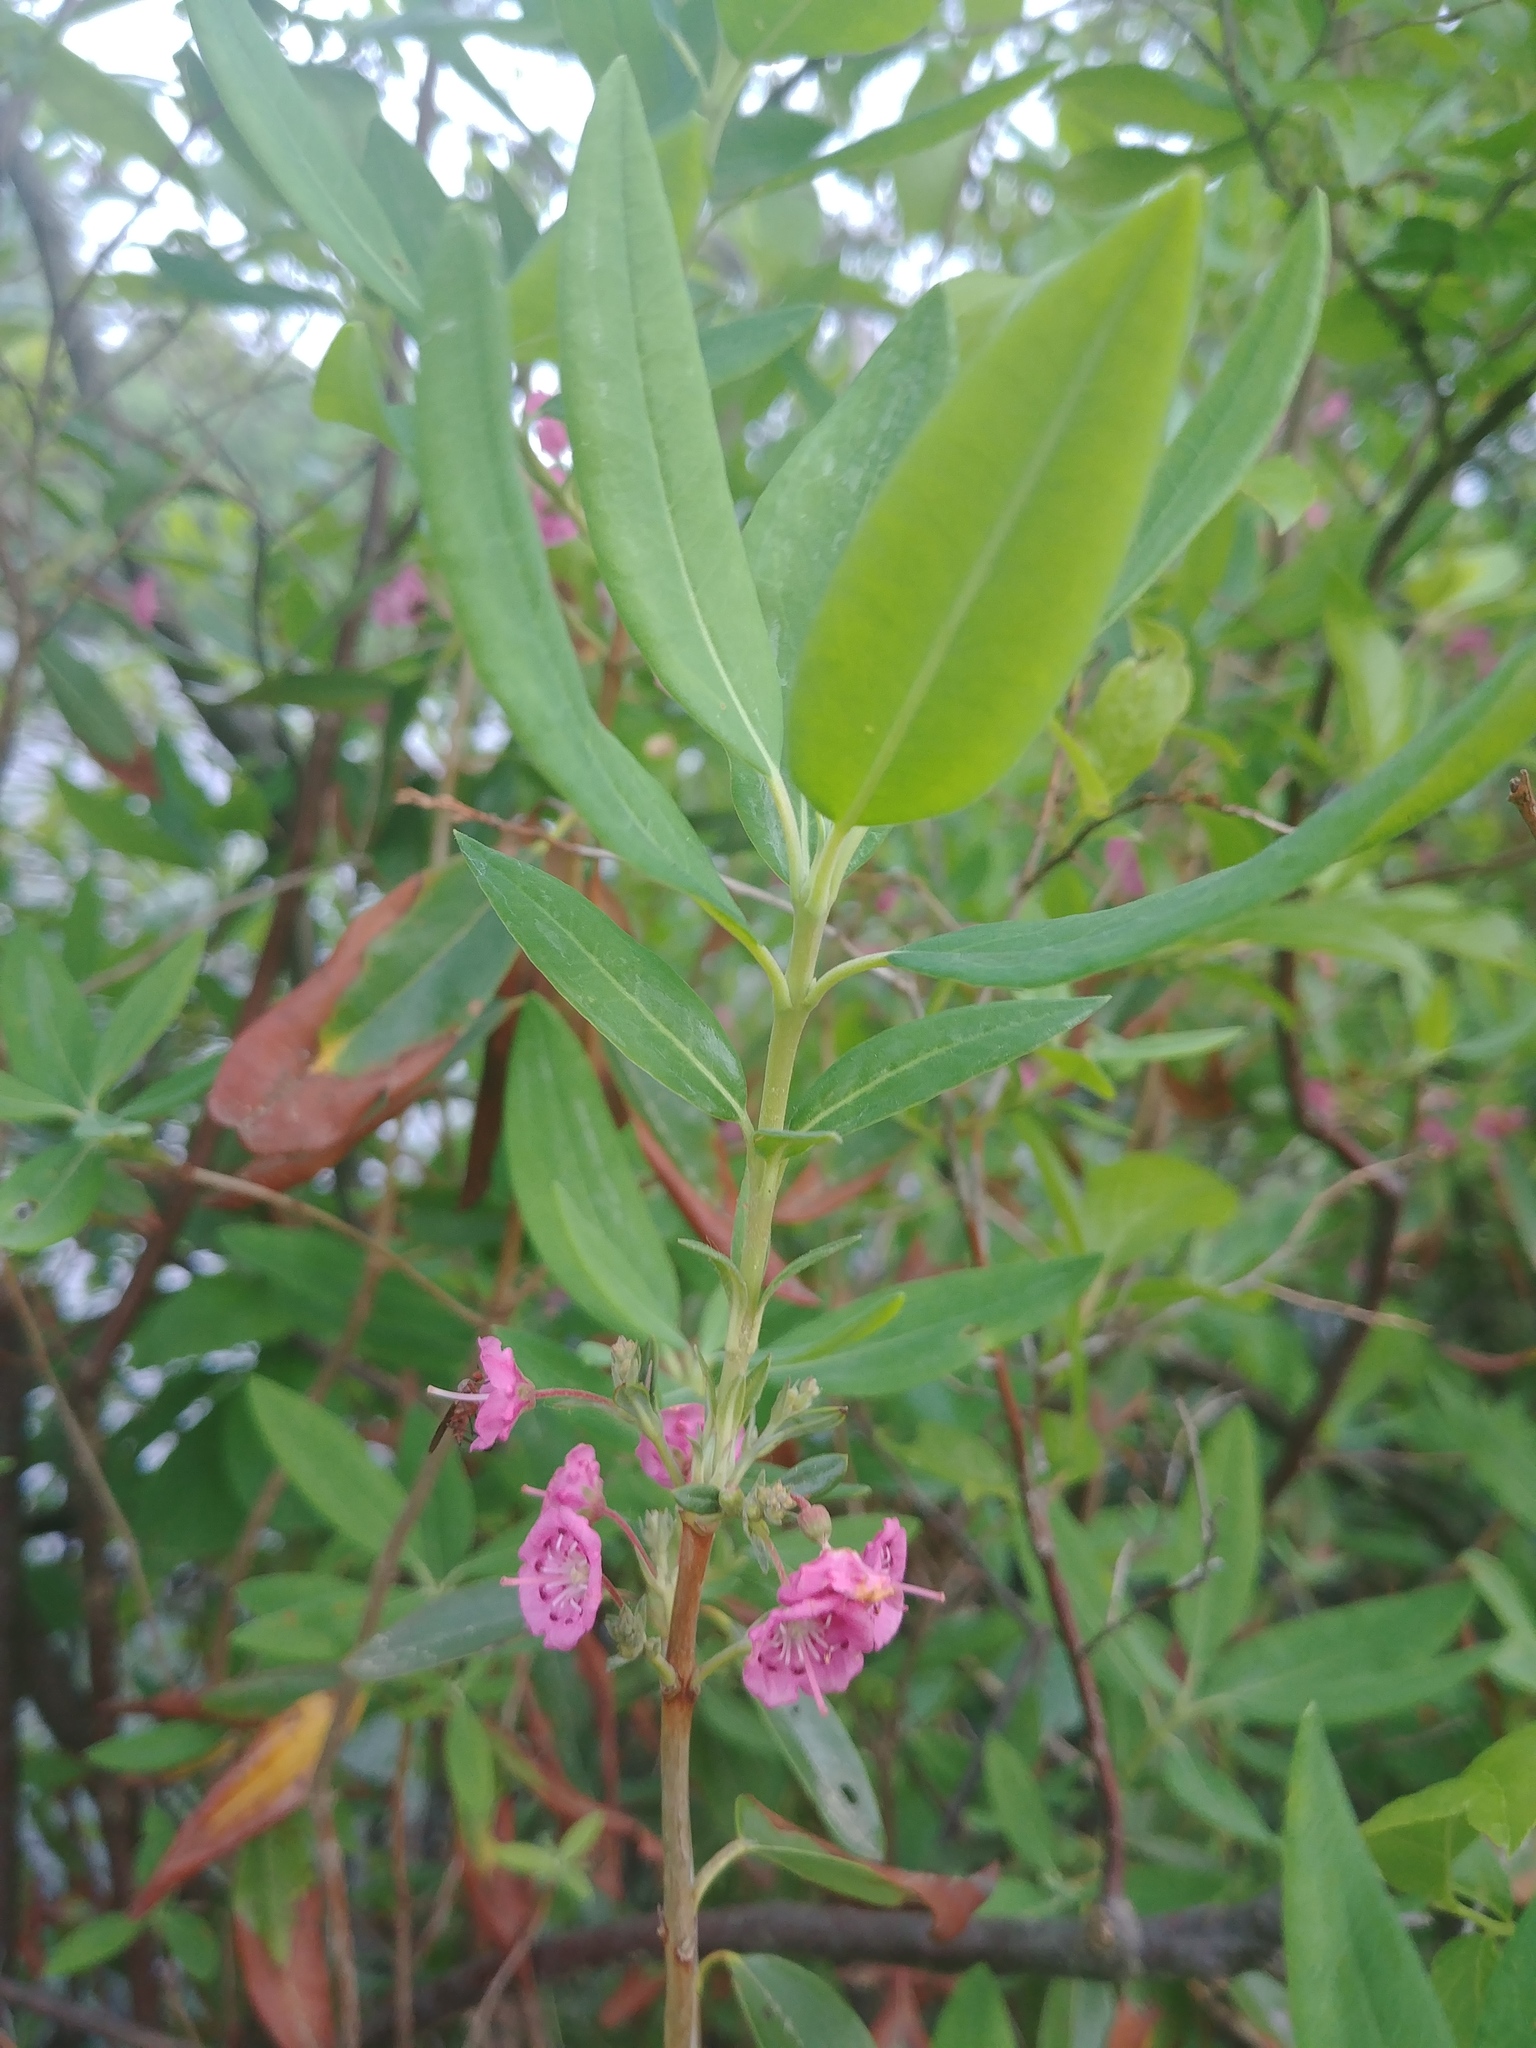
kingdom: Plantae
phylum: Tracheophyta
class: Magnoliopsida
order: Ericales
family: Ericaceae
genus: Kalmia
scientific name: Kalmia angustifolia
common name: Sheep-laurel
